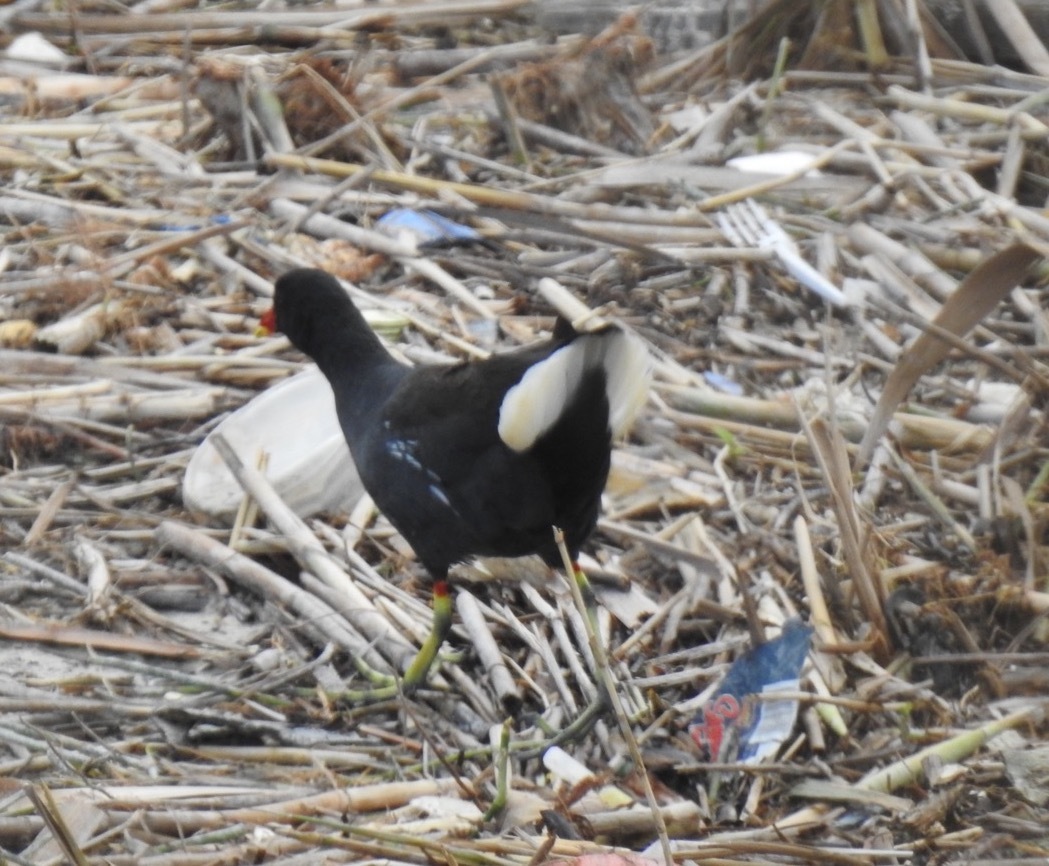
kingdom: Animalia
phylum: Chordata
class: Aves
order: Gruiformes
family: Rallidae
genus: Gallinula
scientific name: Gallinula chloropus
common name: Common moorhen
